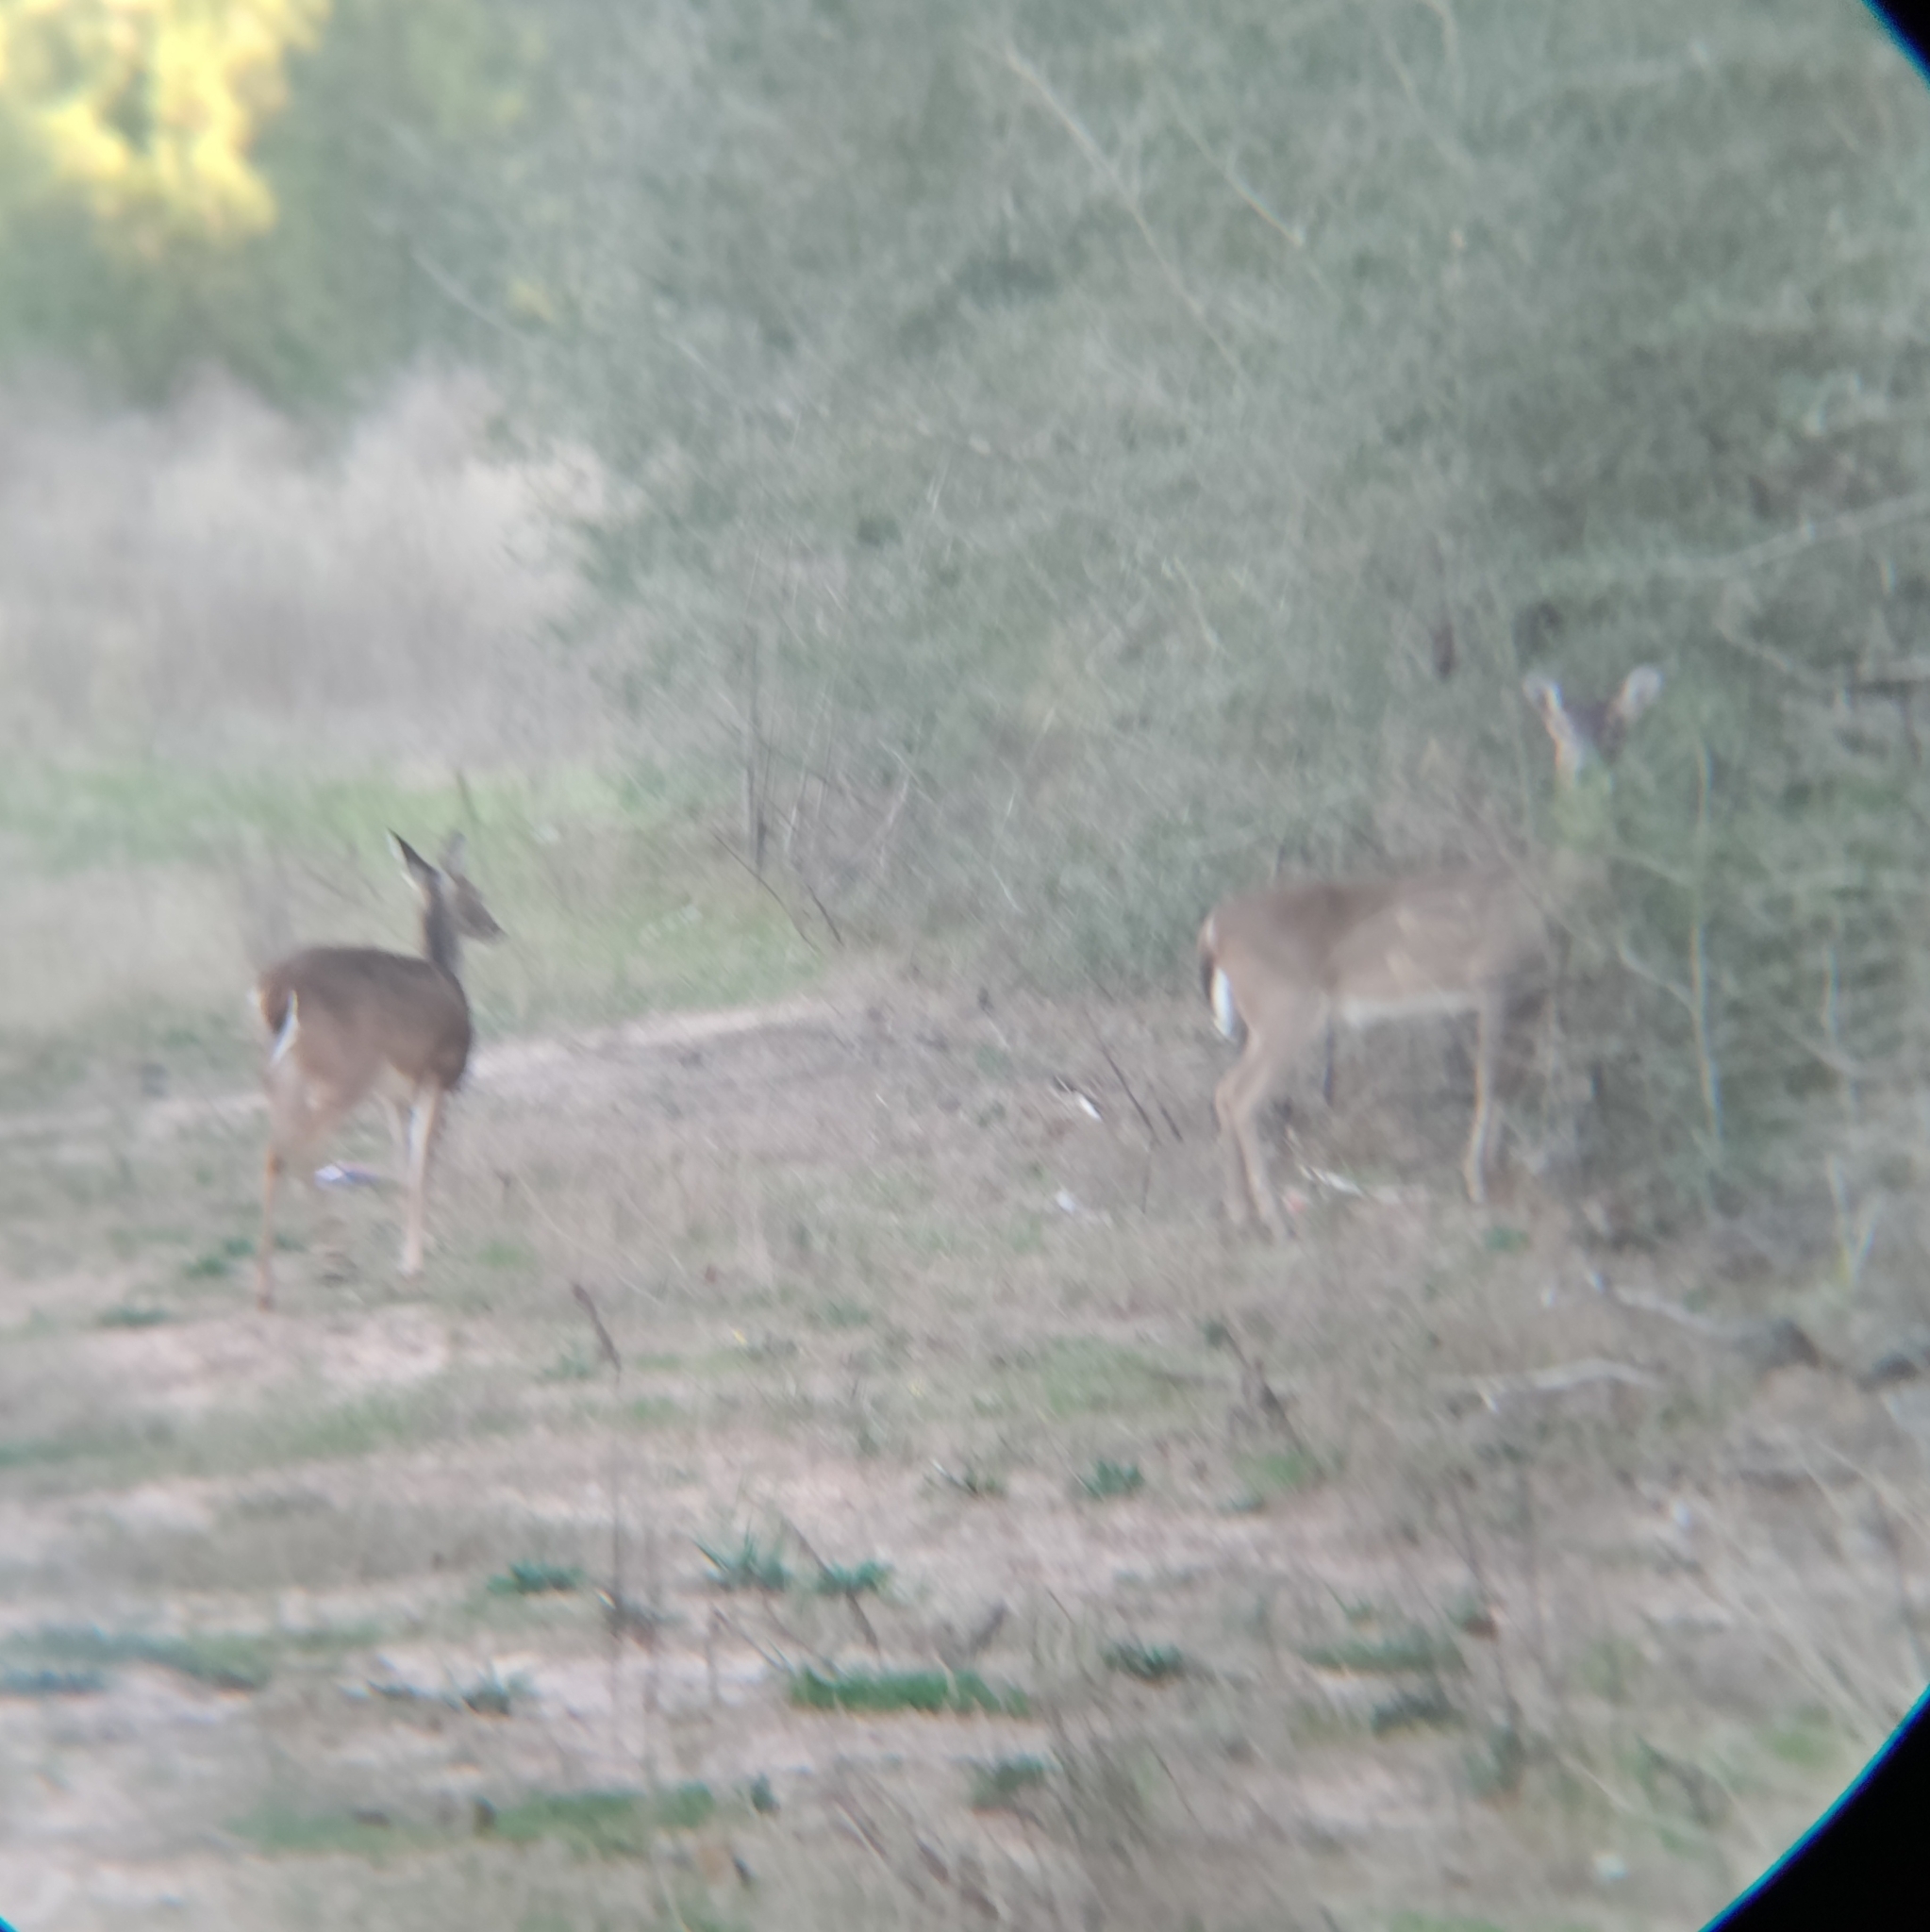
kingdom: Animalia
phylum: Chordata
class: Mammalia
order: Artiodactyla
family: Cervidae
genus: Odocoileus
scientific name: Odocoileus virginianus
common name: White-tailed deer
